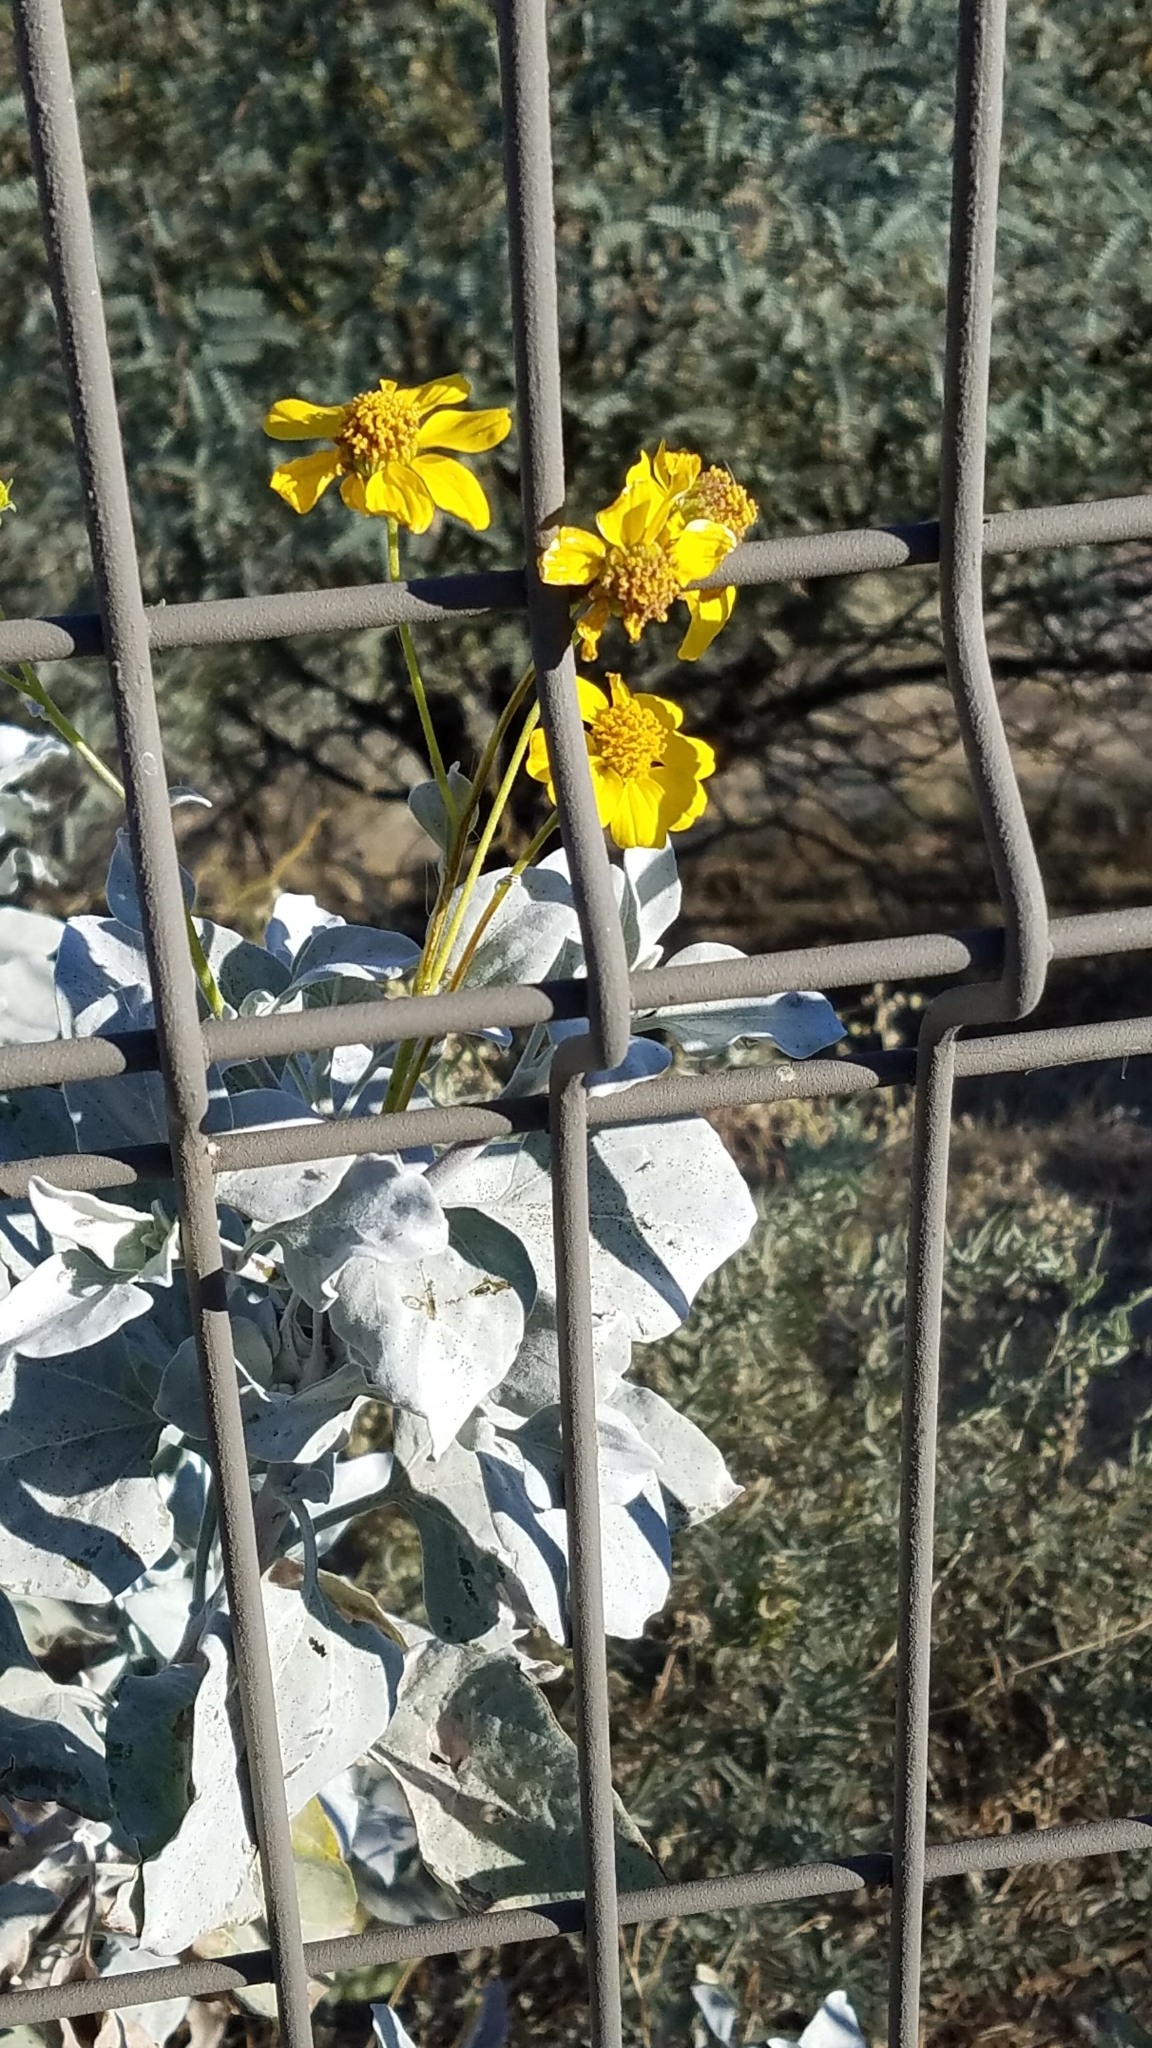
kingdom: Plantae
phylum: Tracheophyta
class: Magnoliopsida
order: Asterales
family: Asteraceae
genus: Encelia
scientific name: Encelia farinosa
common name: Brittlebush
